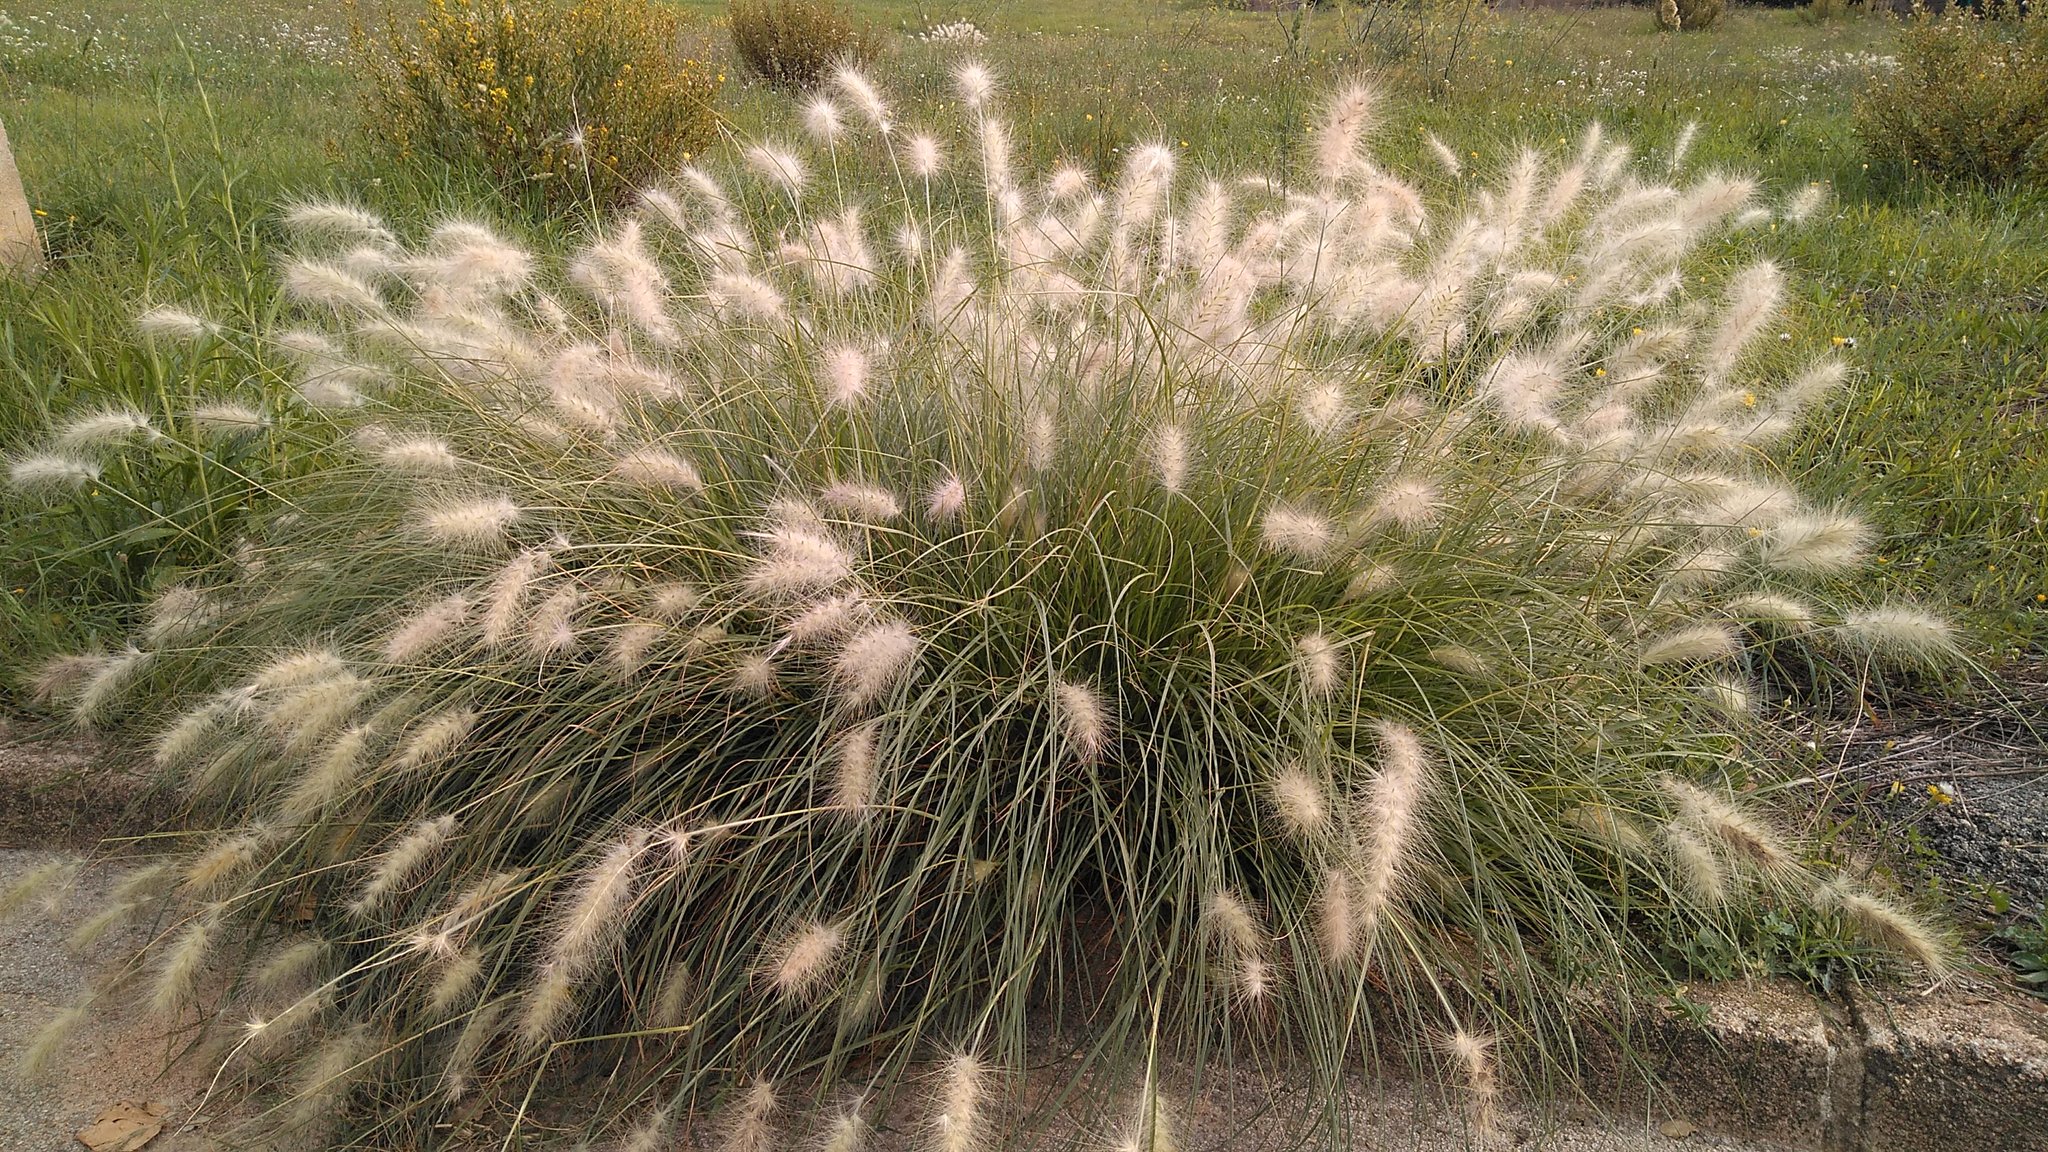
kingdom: Plantae
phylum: Tracheophyta
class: Liliopsida
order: Poales
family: Poaceae
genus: Cenchrus
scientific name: Cenchrus longisetus
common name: Feathertop
